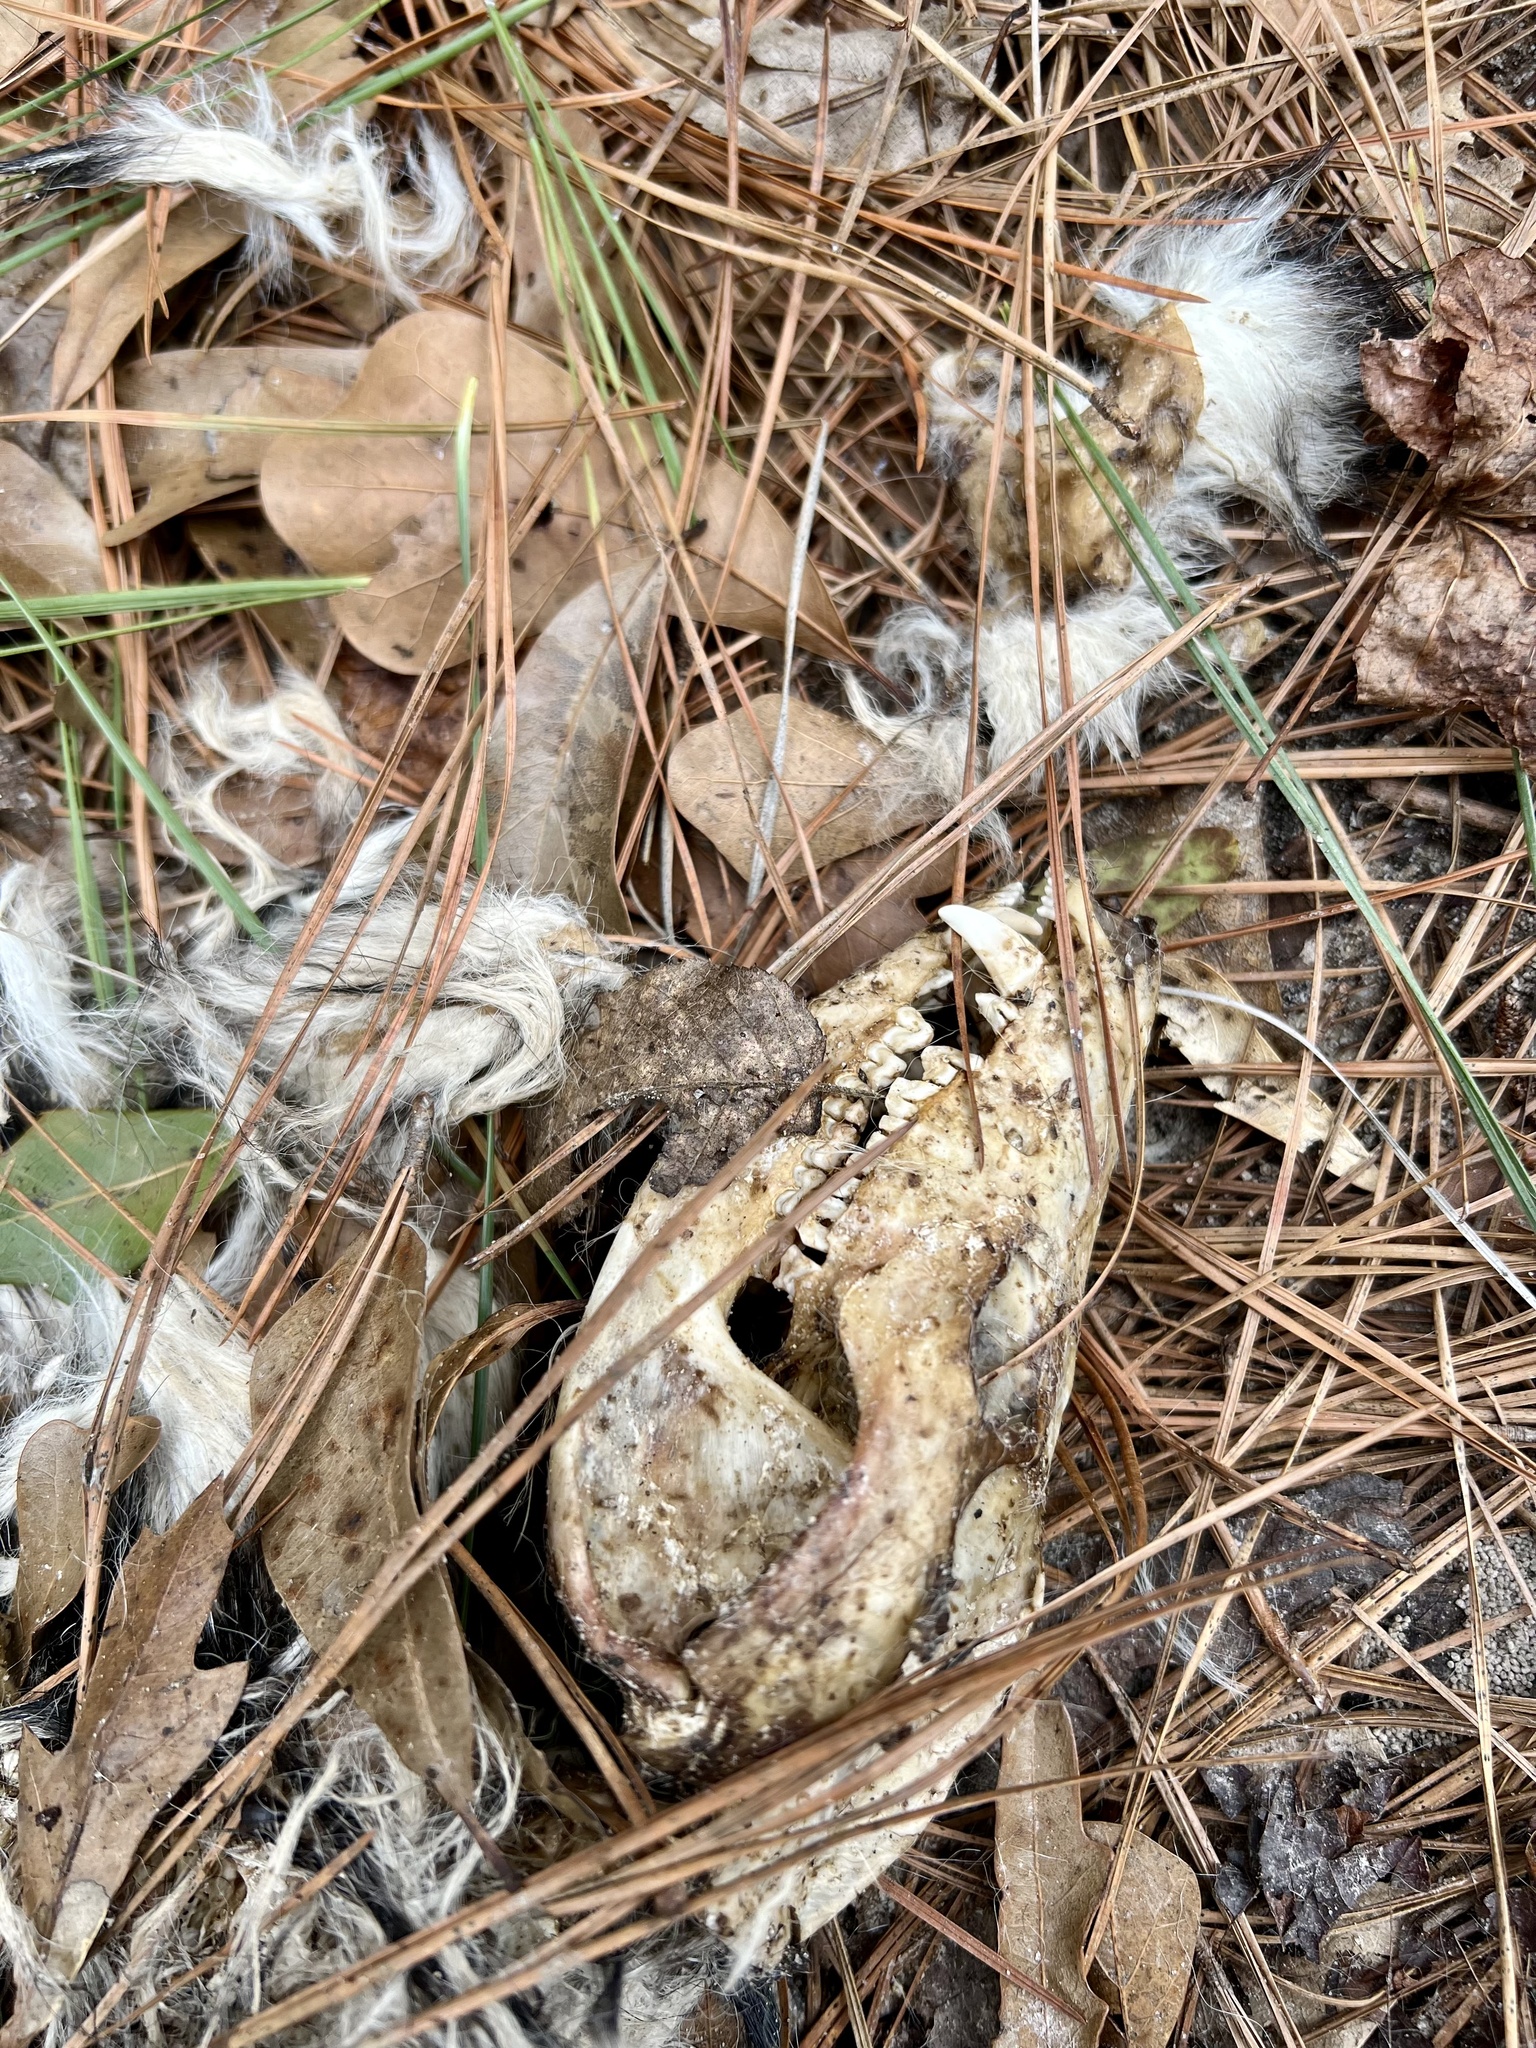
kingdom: Animalia
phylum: Chordata
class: Mammalia
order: Didelphimorphia
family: Didelphidae
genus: Didelphis
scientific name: Didelphis virginiana
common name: Virginia opossum
